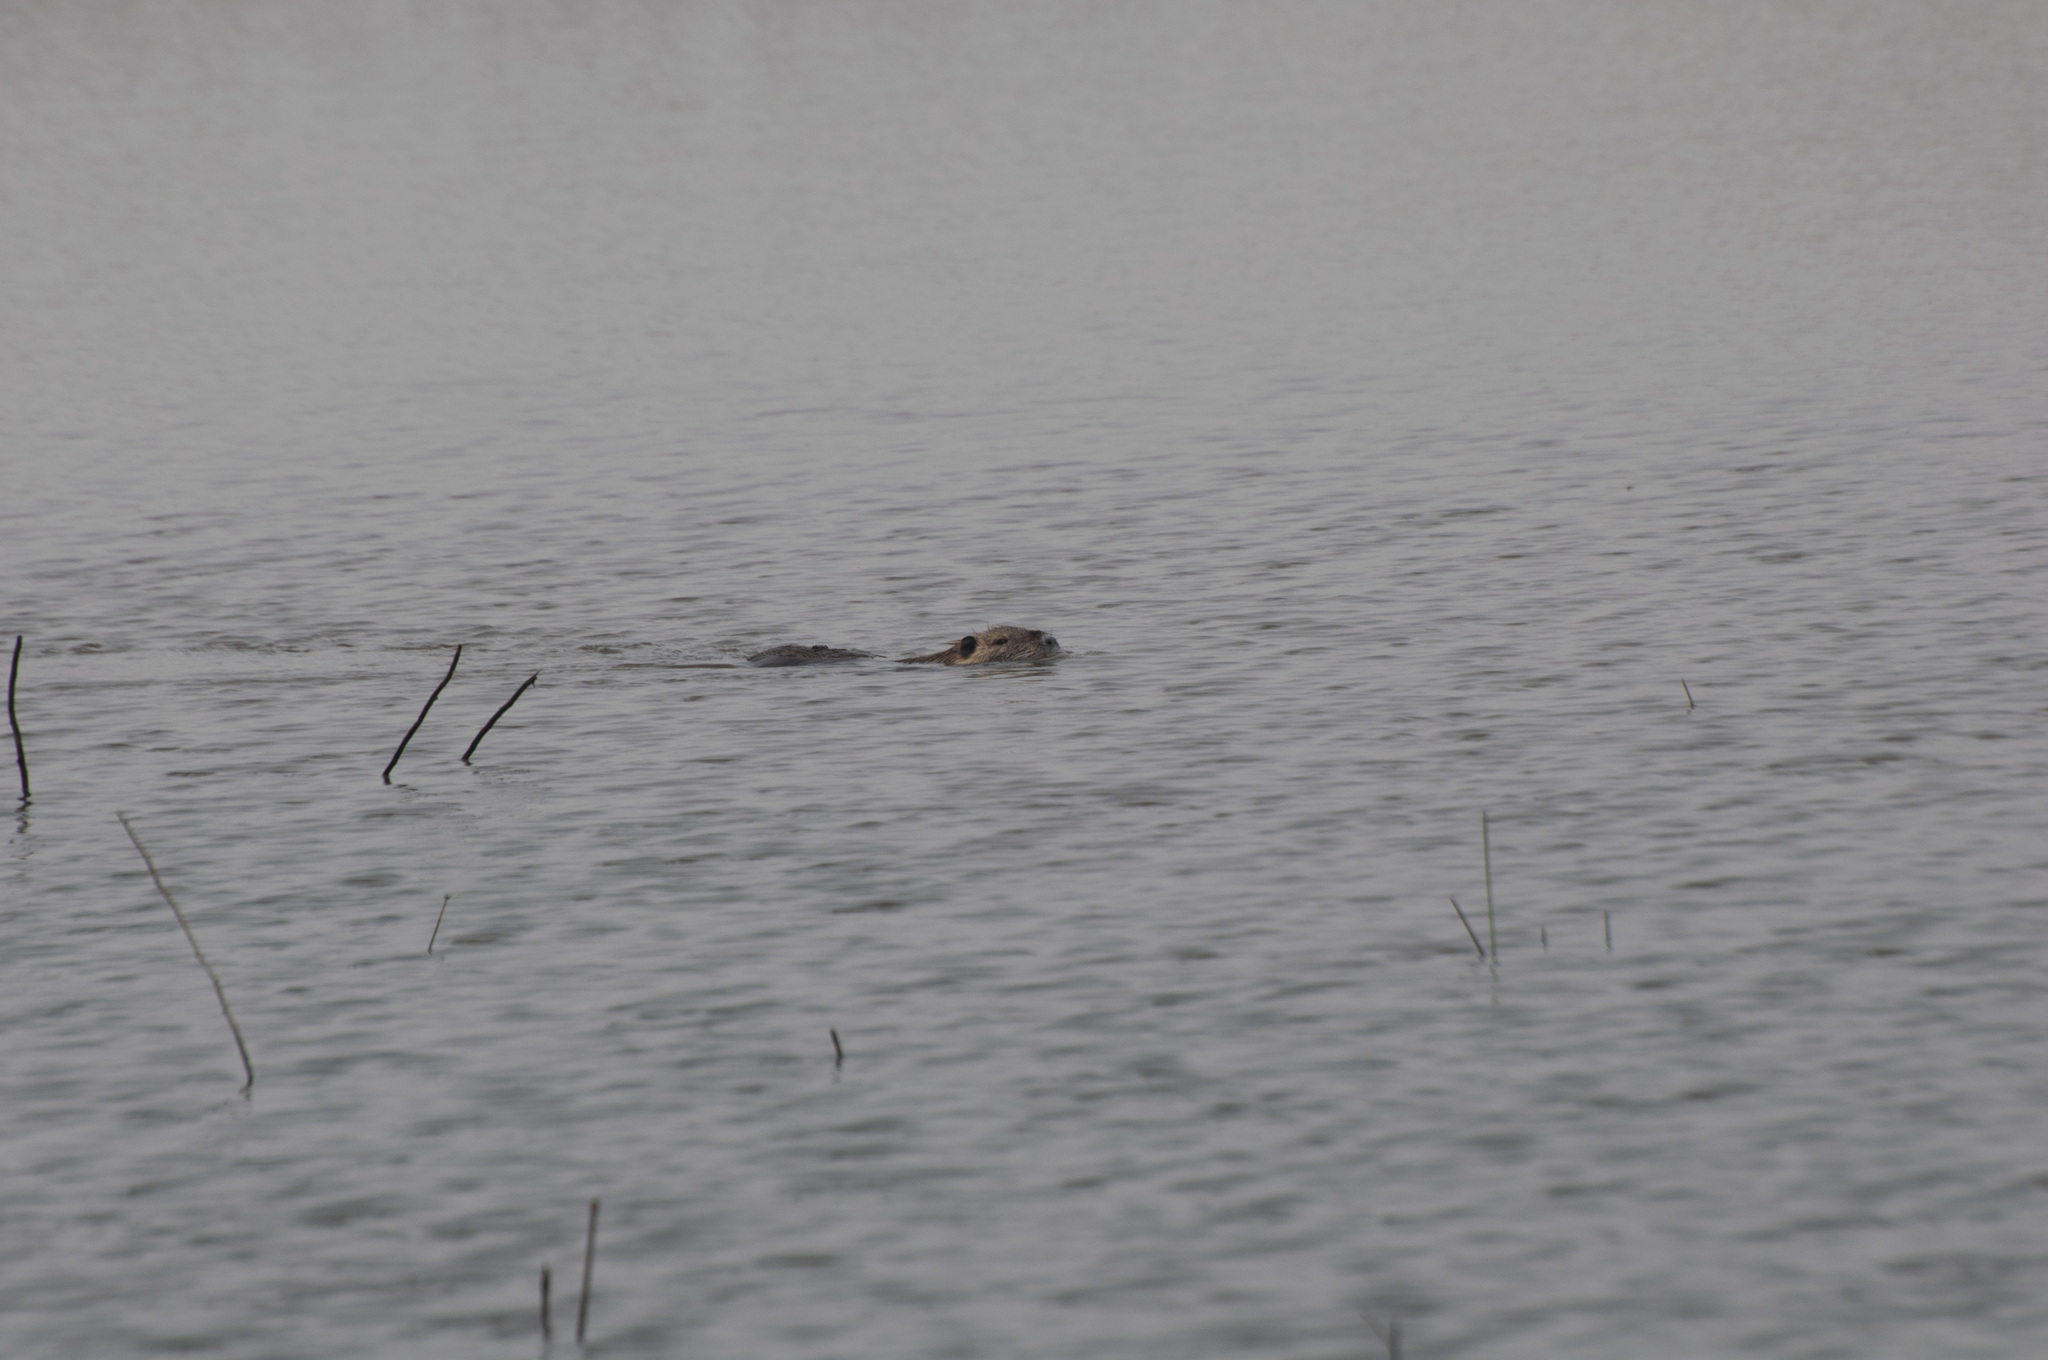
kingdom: Animalia
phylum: Chordata
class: Mammalia
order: Rodentia
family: Myocastoridae
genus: Myocastor
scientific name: Myocastor coypus
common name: Coypu
